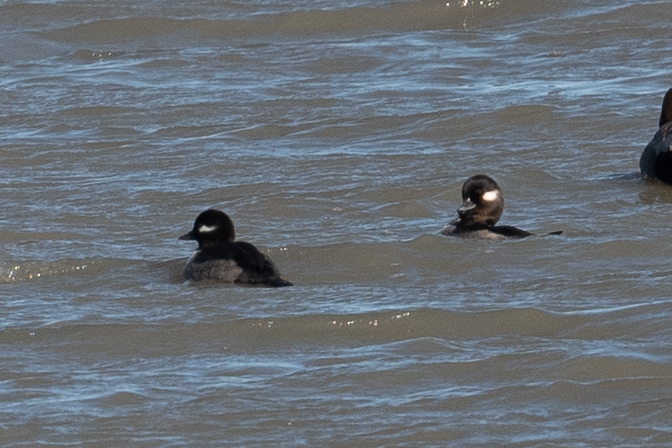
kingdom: Animalia
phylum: Chordata
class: Aves
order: Anseriformes
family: Anatidae
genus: Bucephala
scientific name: Bucephala albeola
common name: Bufflehead
